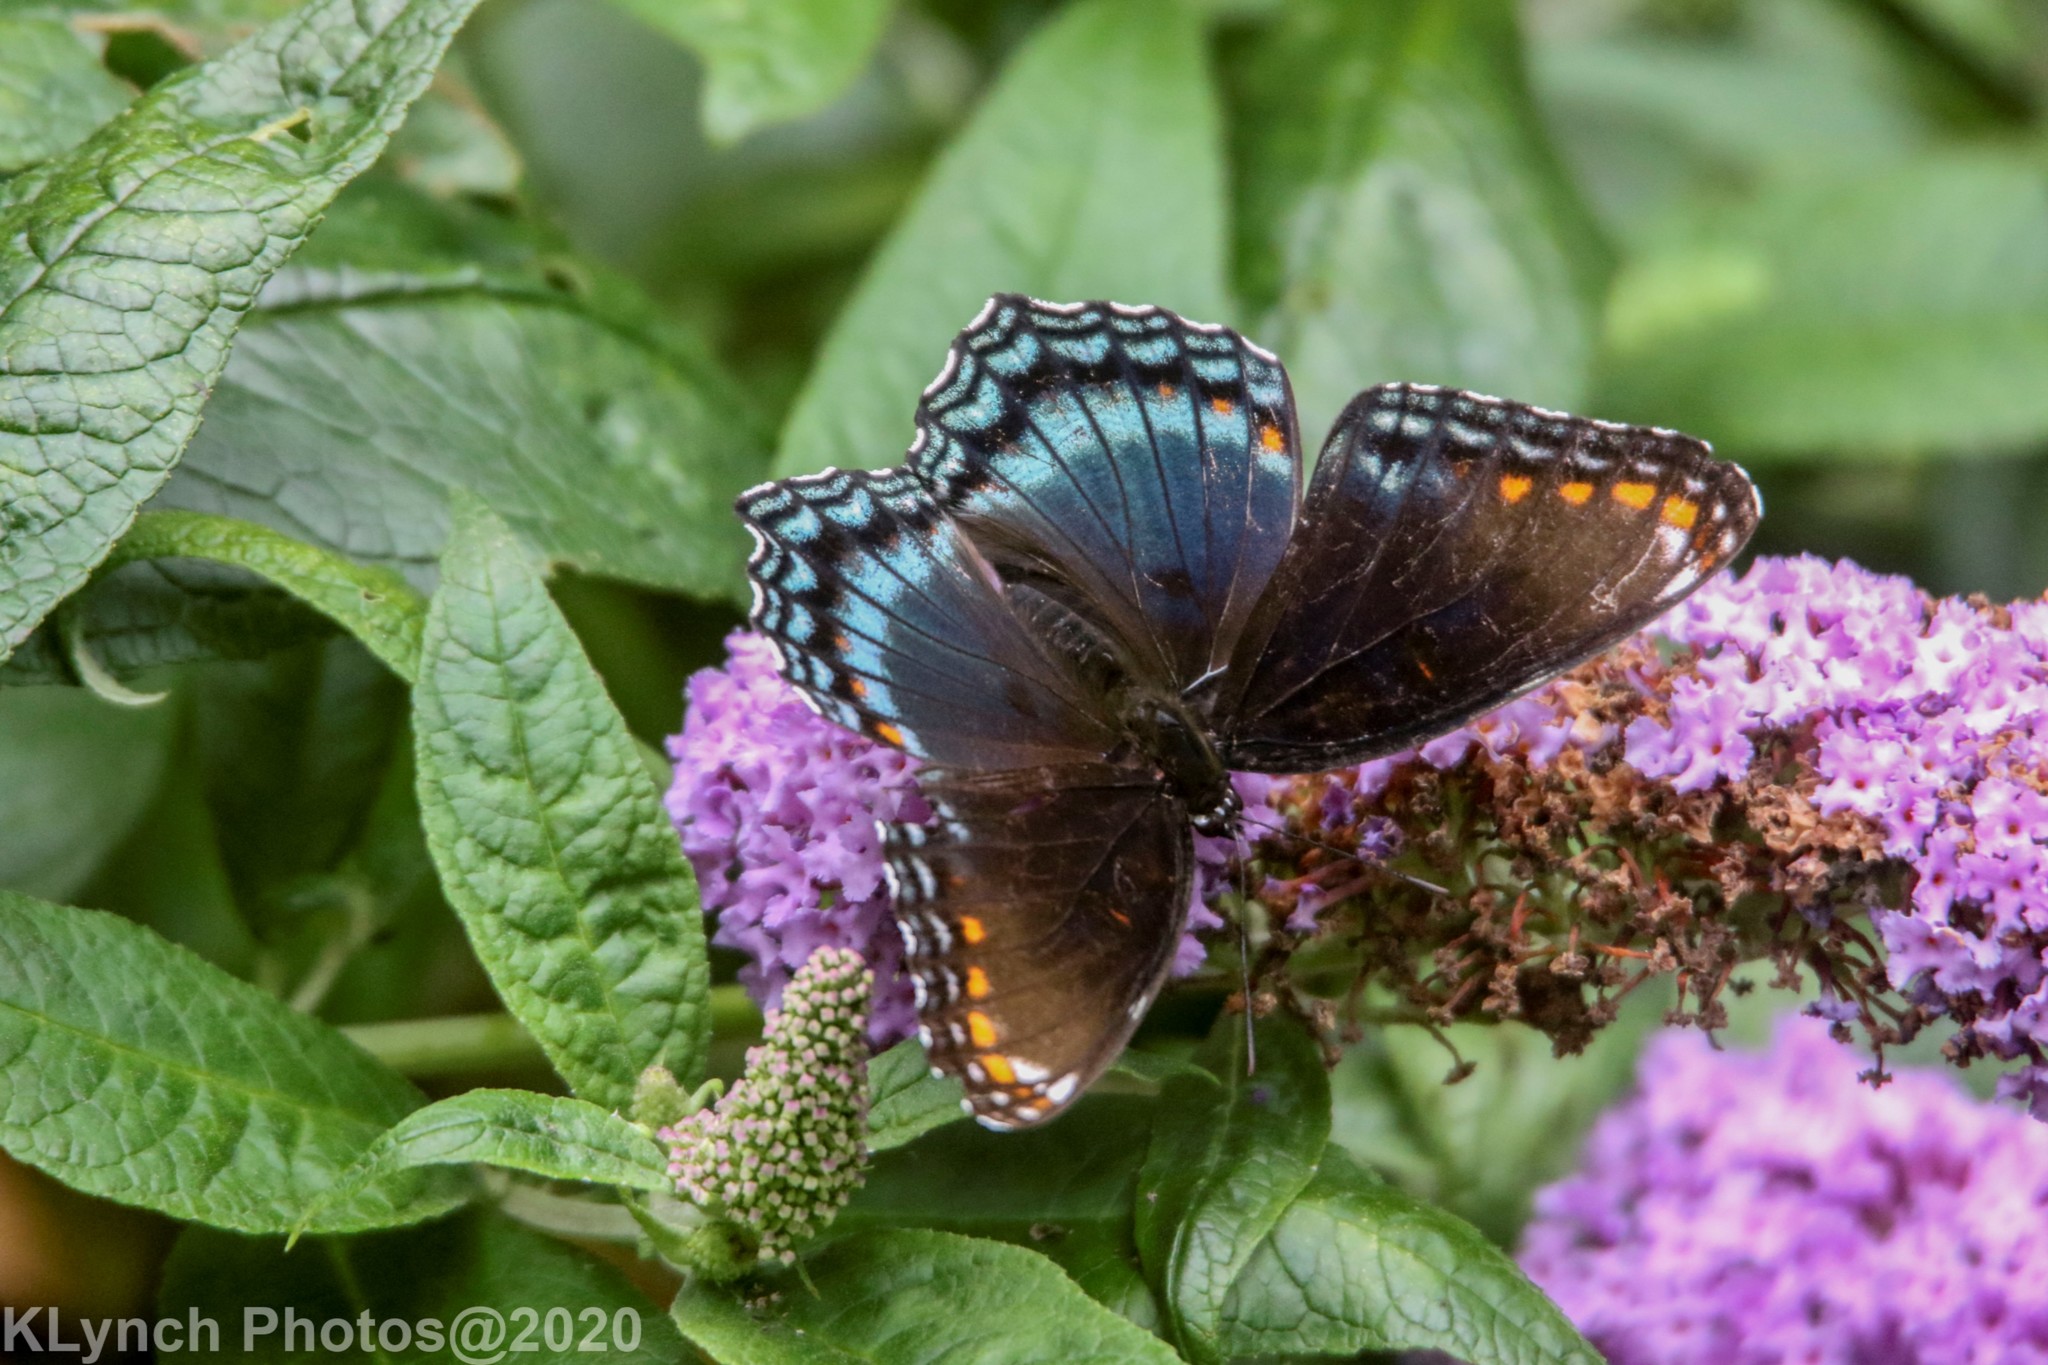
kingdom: Animalia
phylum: Arthropoda
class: Insecta
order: Lepidoptera
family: Nymphalidae
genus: Limenitis
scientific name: Limenitis arthemis
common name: Red-spotted admiral
